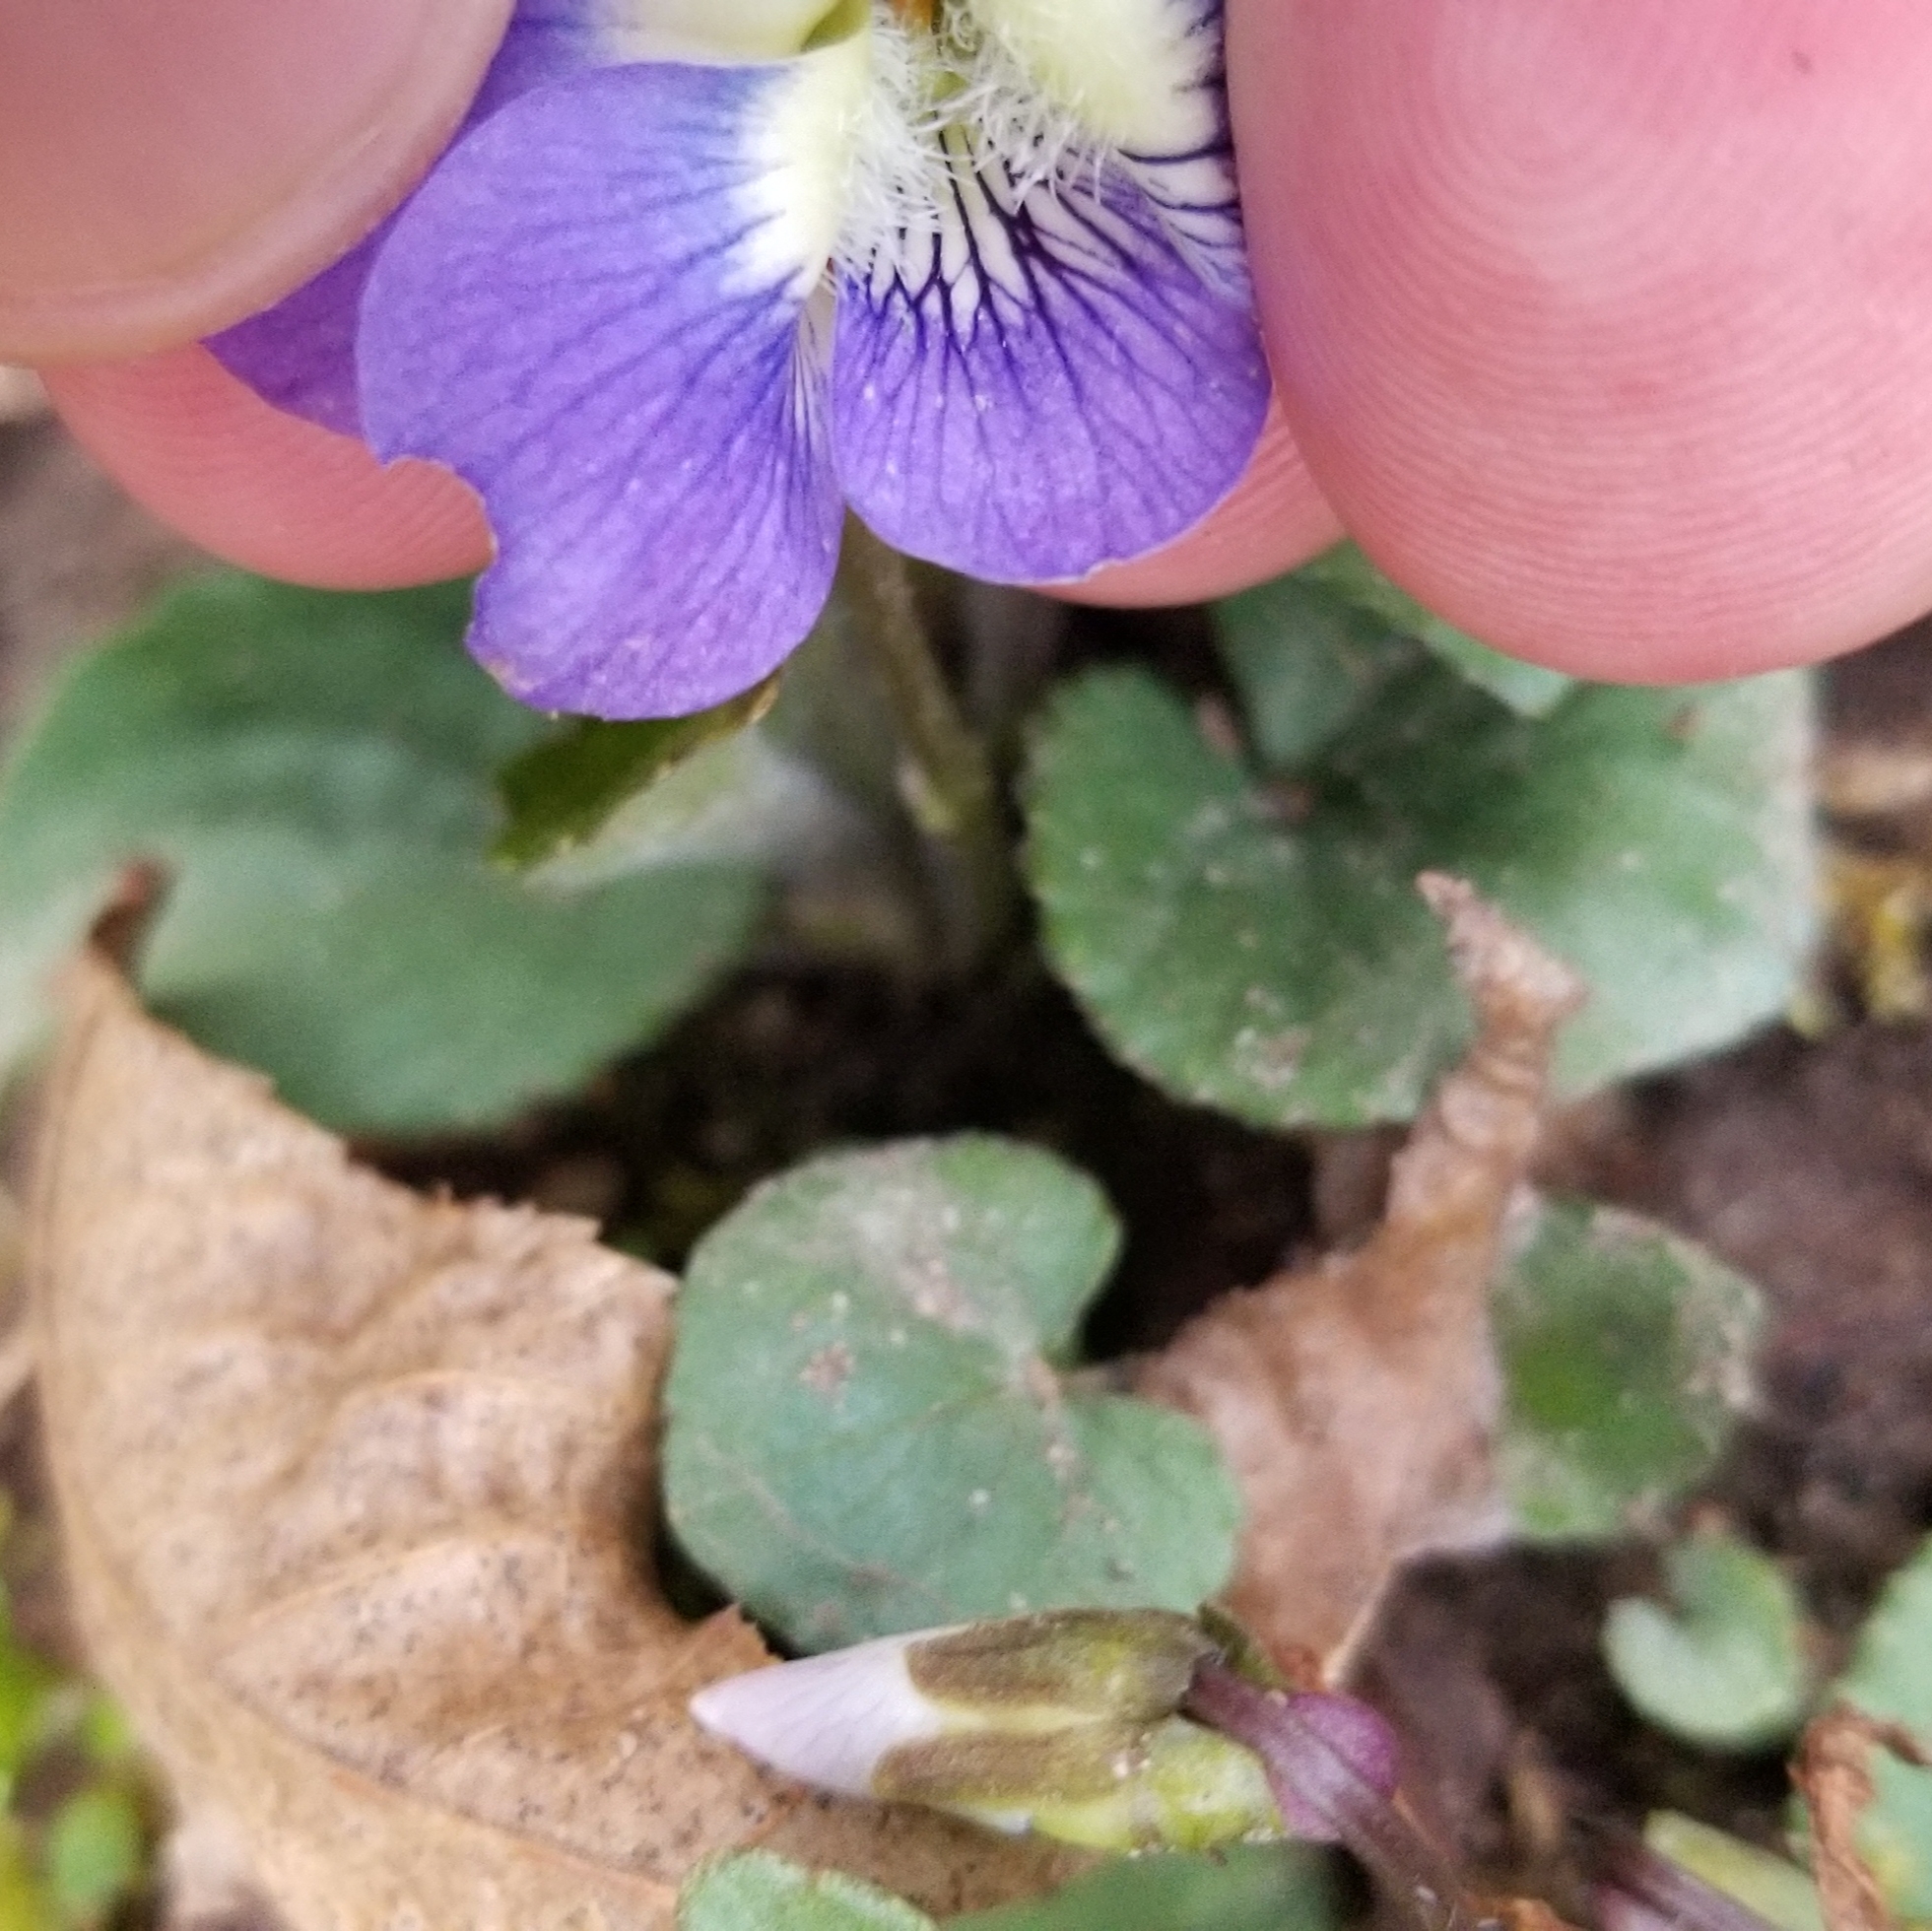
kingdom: Plantae
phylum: Tracheophyta
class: Magnoliopsida
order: Malpighiales
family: Violaceae
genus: Viola
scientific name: Viola sororia
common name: Dooryard violet
